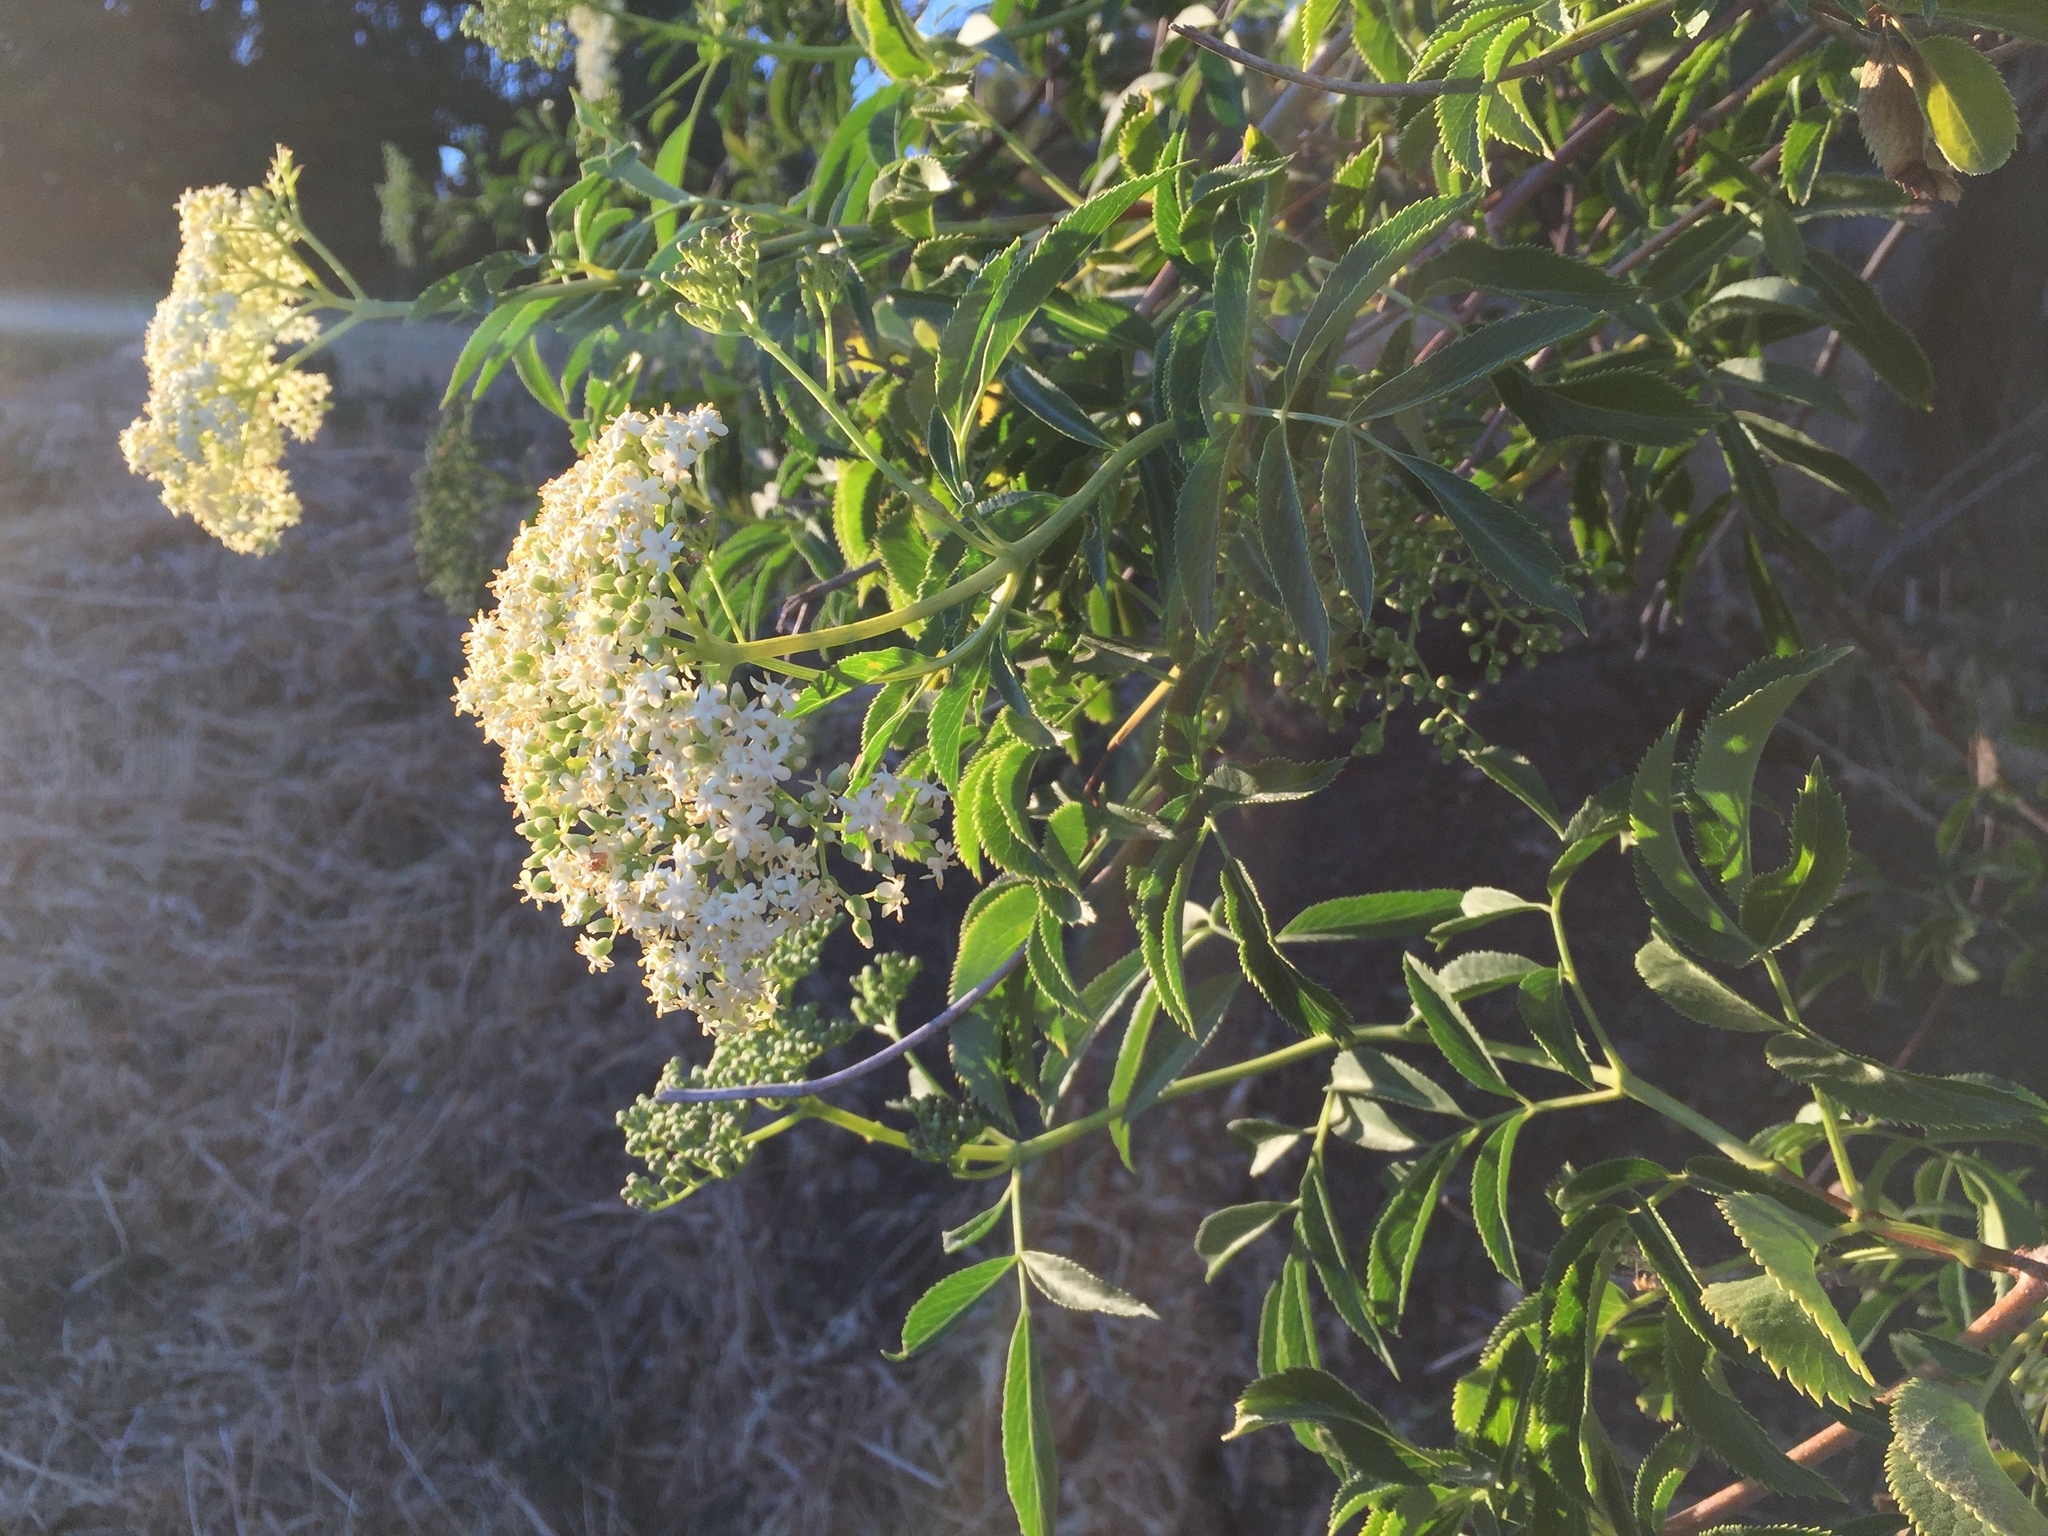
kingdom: Plantae
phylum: Tracheophyta
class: Magnoliopsida
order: Dipsacales
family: Viburnaceae
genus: Sambucus
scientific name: Sambucus cerulea
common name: Blue elder
